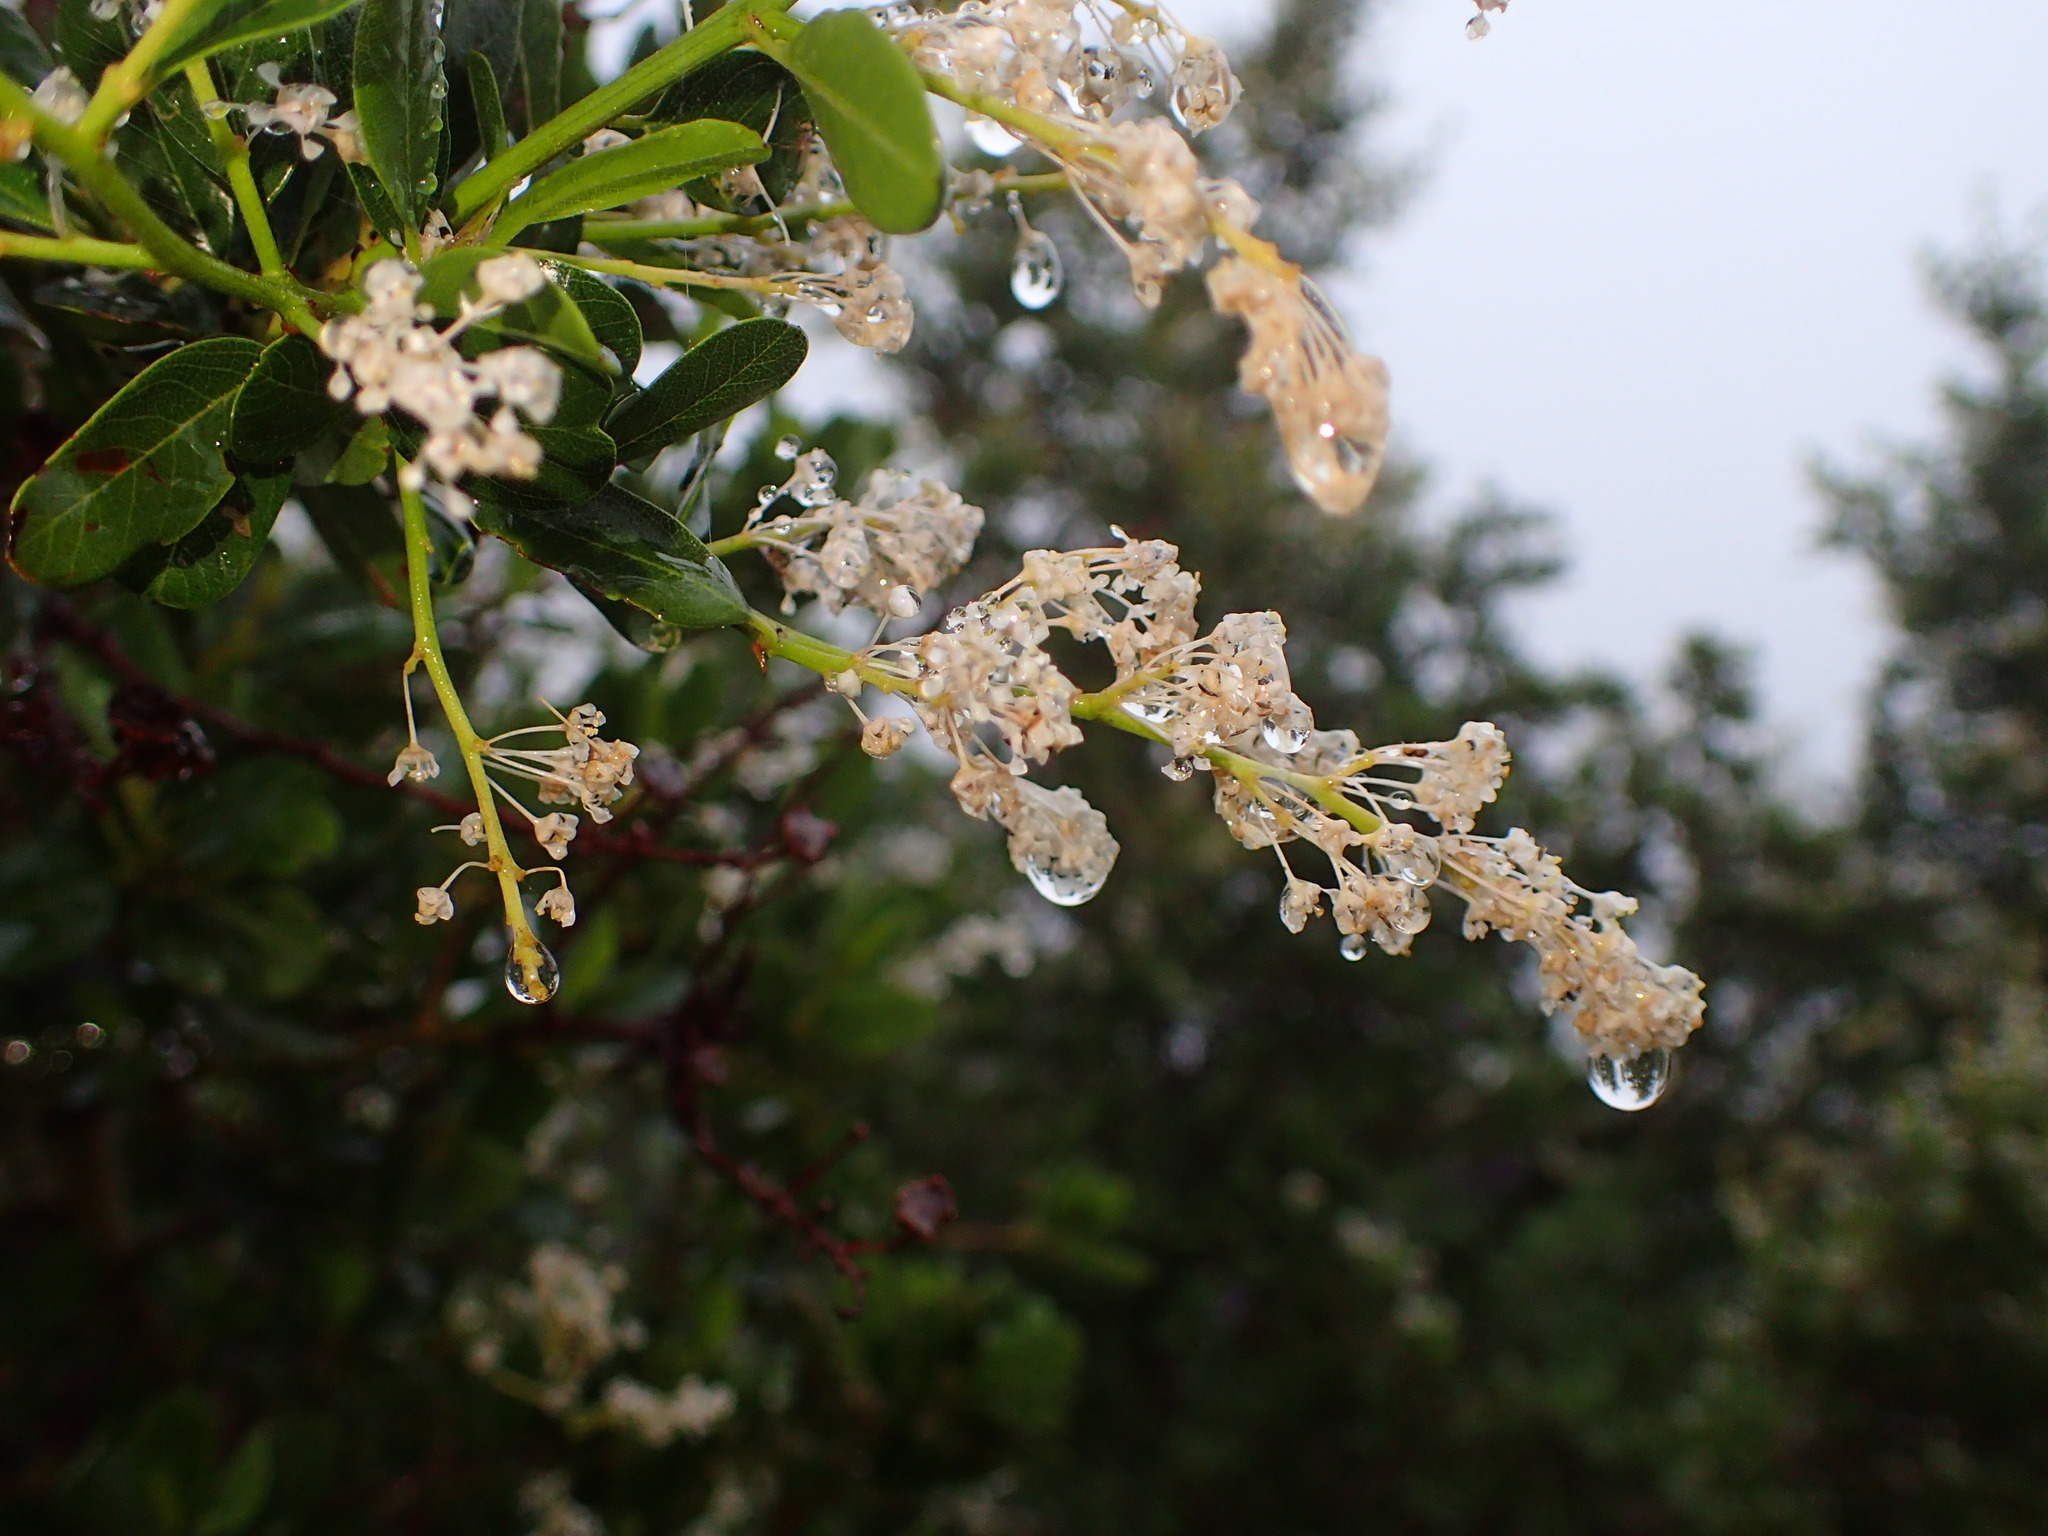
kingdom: Plantae
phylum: Tracheophyta
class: Magnoliopsida
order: Rosales
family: Rhamnaceae
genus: Ceanothus
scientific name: Ceanothus spinosus
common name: Greenbark whitethorn
